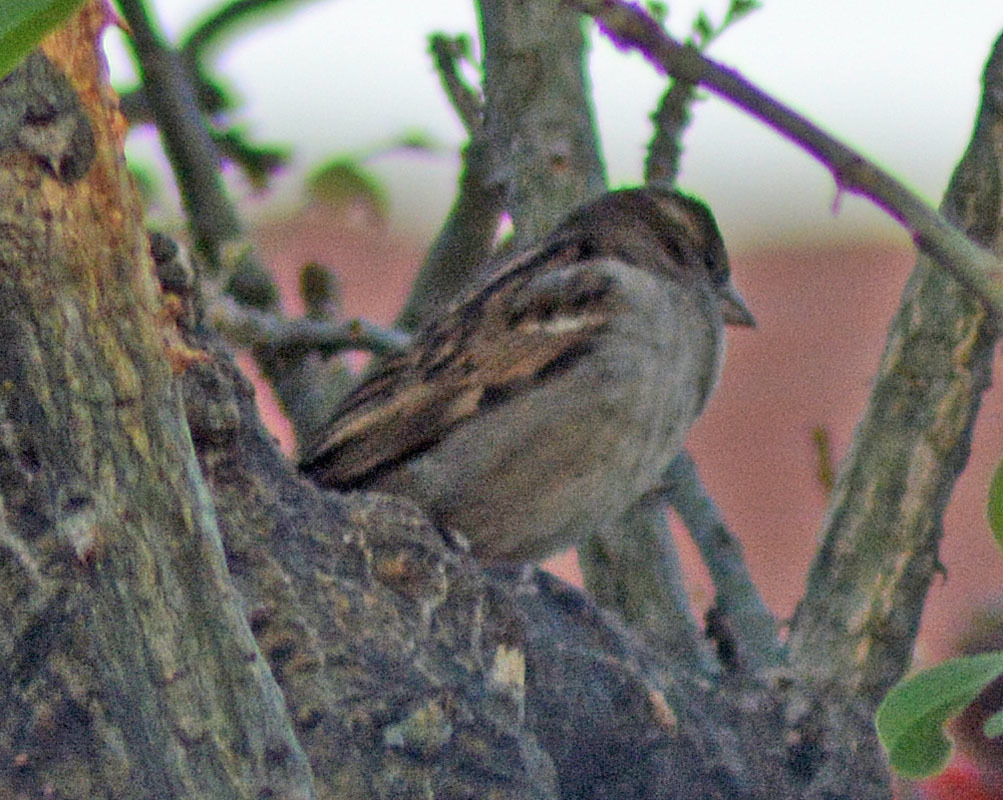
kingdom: Animalia
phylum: Chordata
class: Aves
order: Passeriformes
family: Passeridae
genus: Passer
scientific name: Passer domesticus
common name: House sparrow
